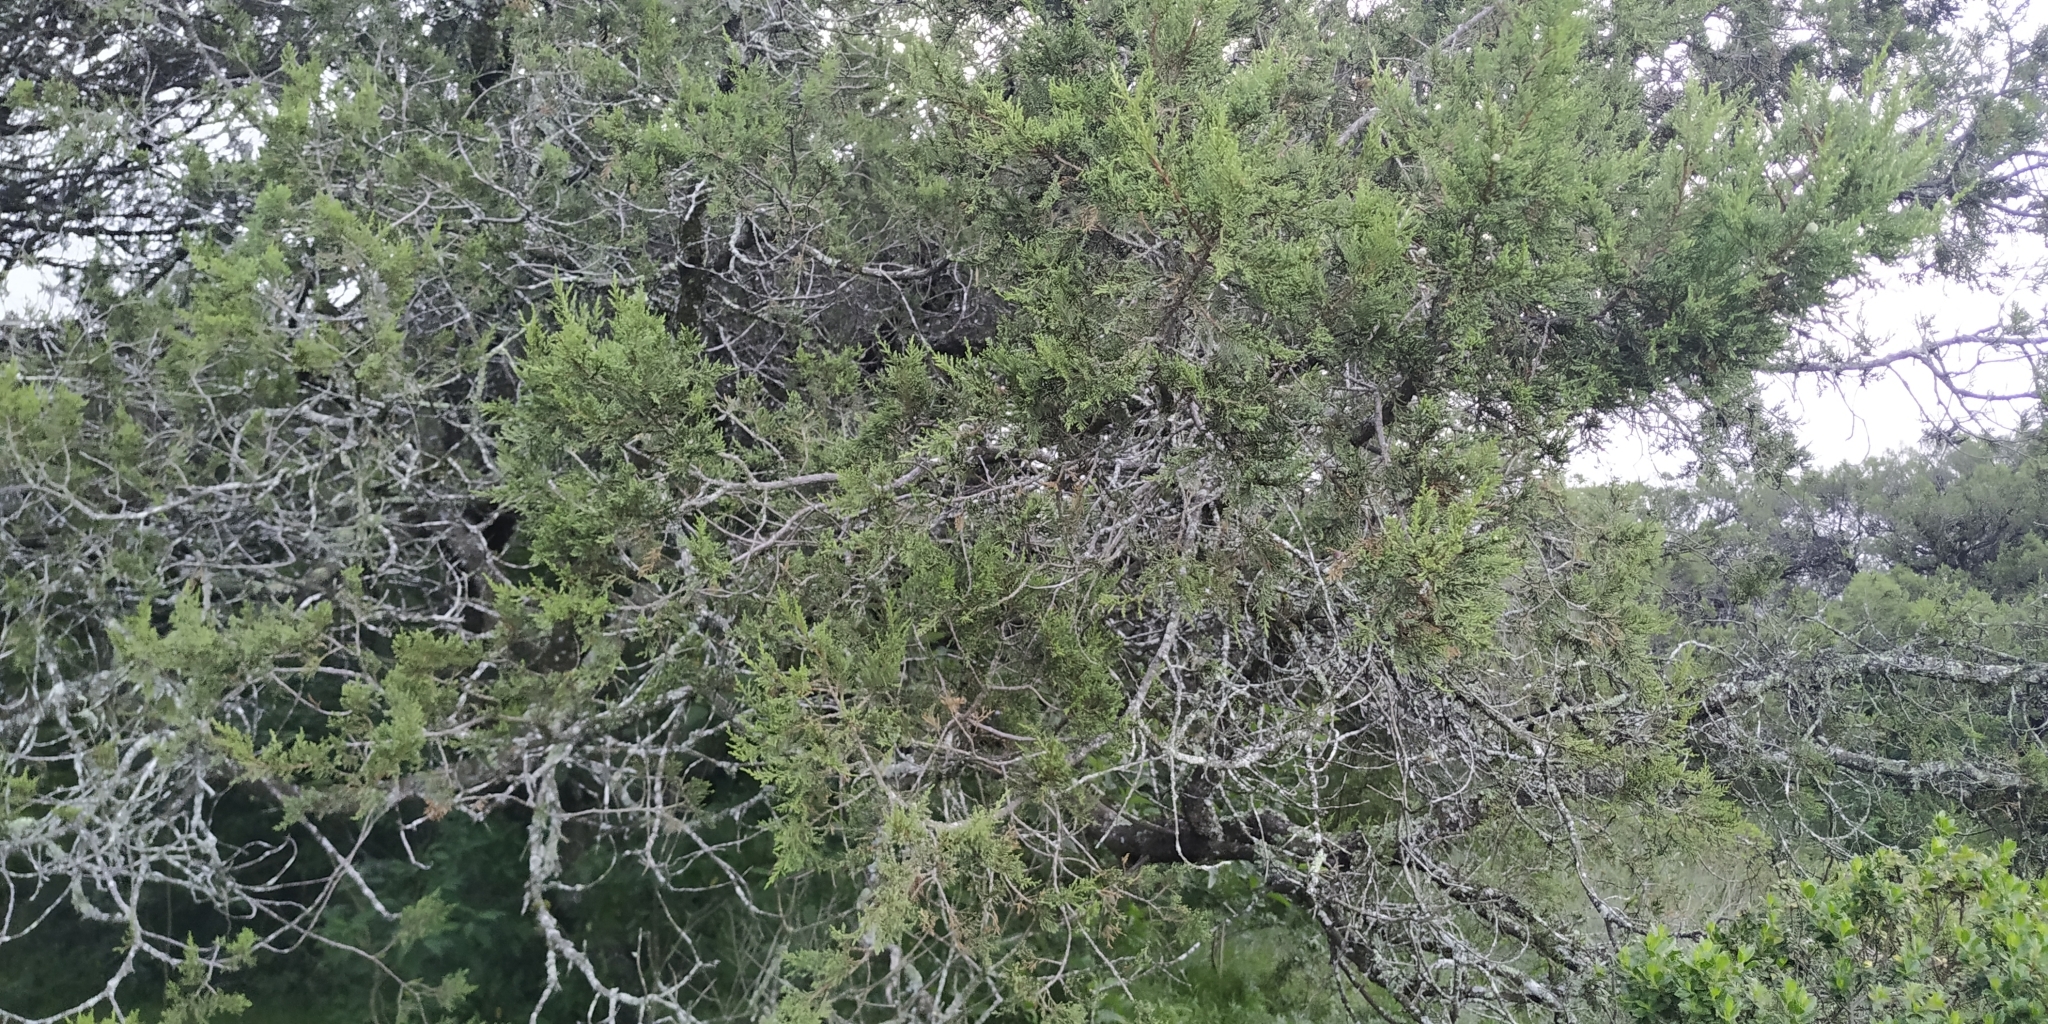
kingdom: Plantae
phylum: Tracheophyta
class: Pinopsida
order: Pinales
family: Cupressaceae
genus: Juniperus
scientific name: Juniperus deppeana
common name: Alligator juniper
